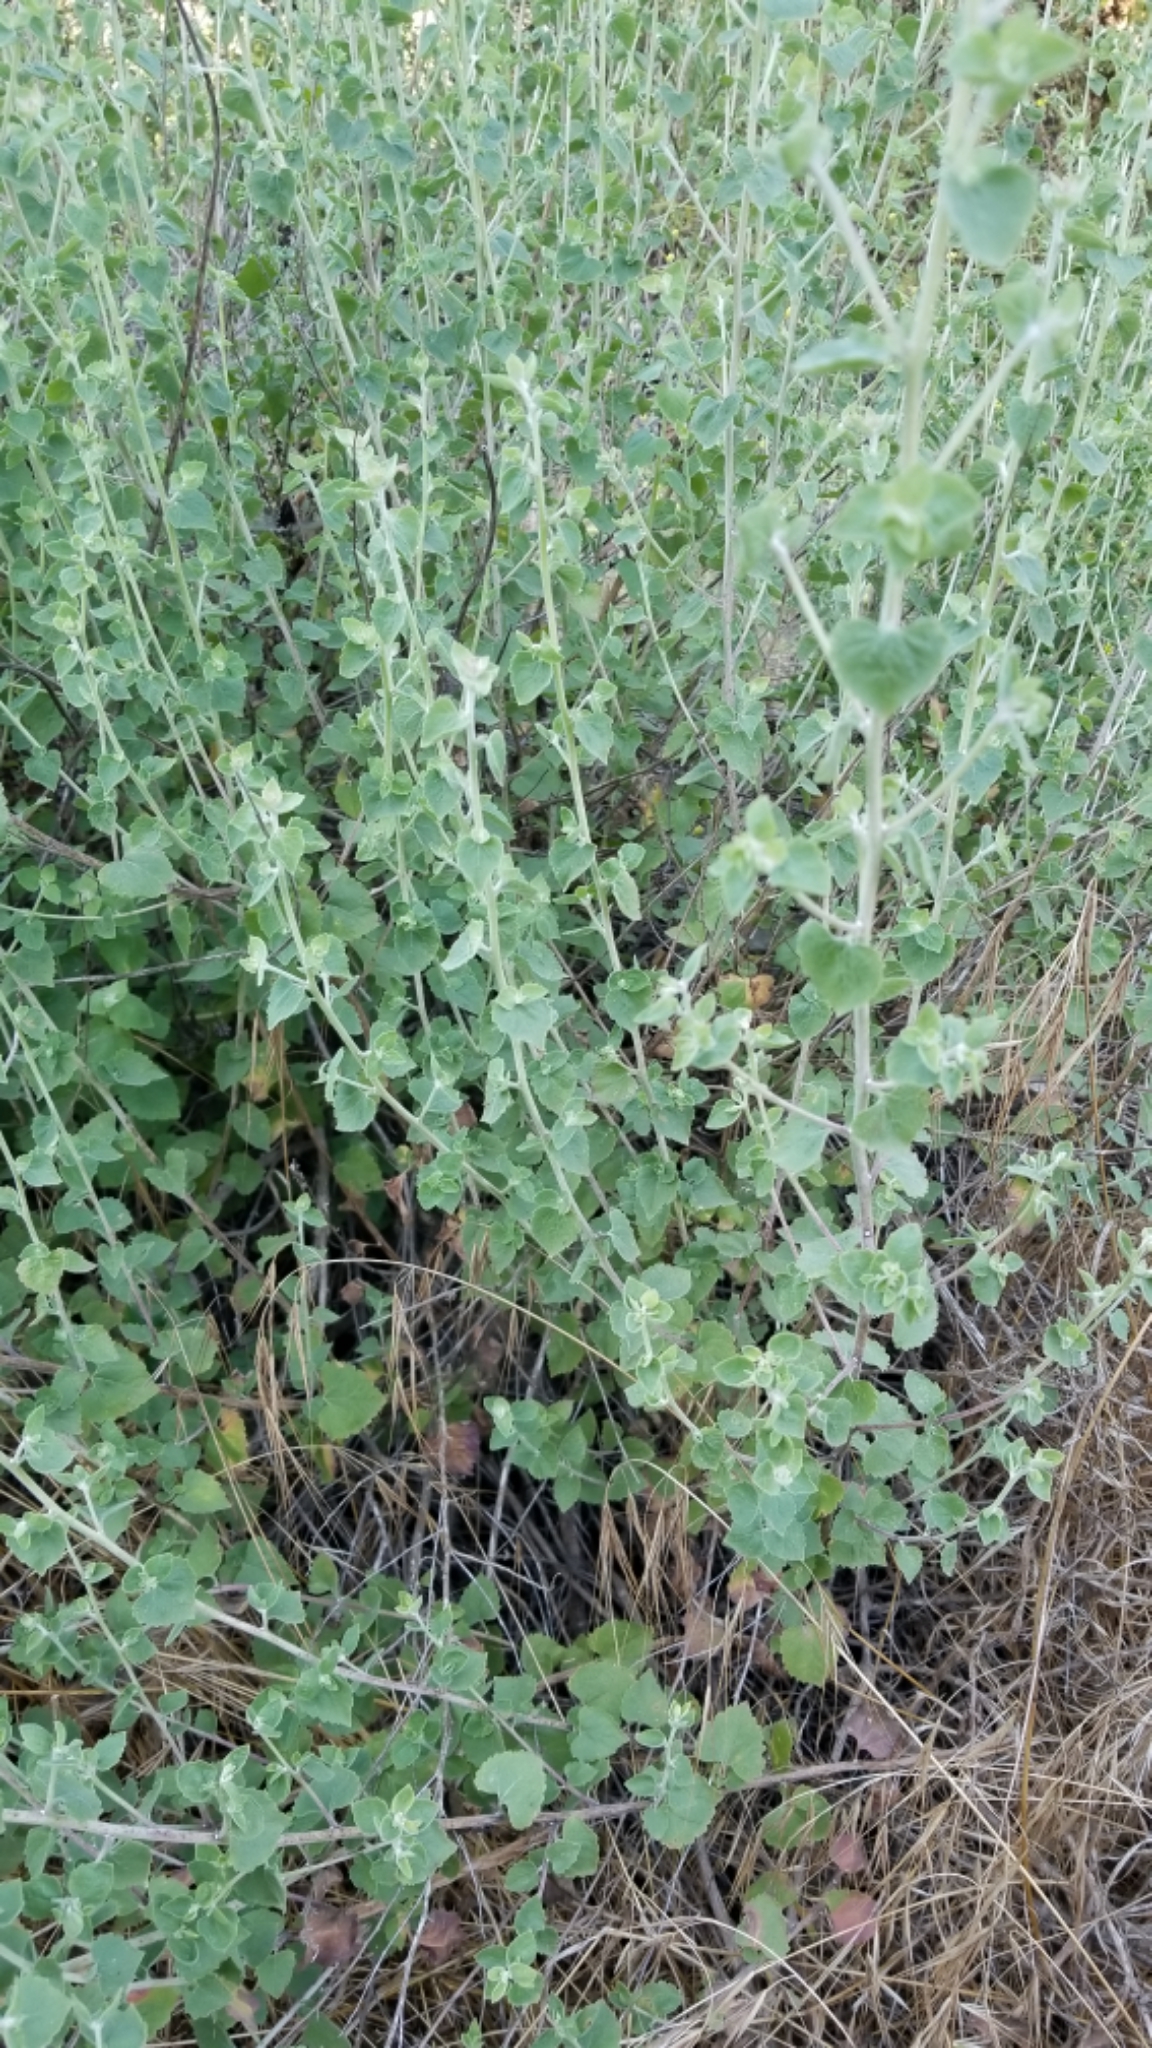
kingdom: Plantae
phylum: Tracheophyta
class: Magnoliopsida
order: Asterales
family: Asteraceae
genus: Brickellia
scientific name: Brickellia californica
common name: California brickellbush
